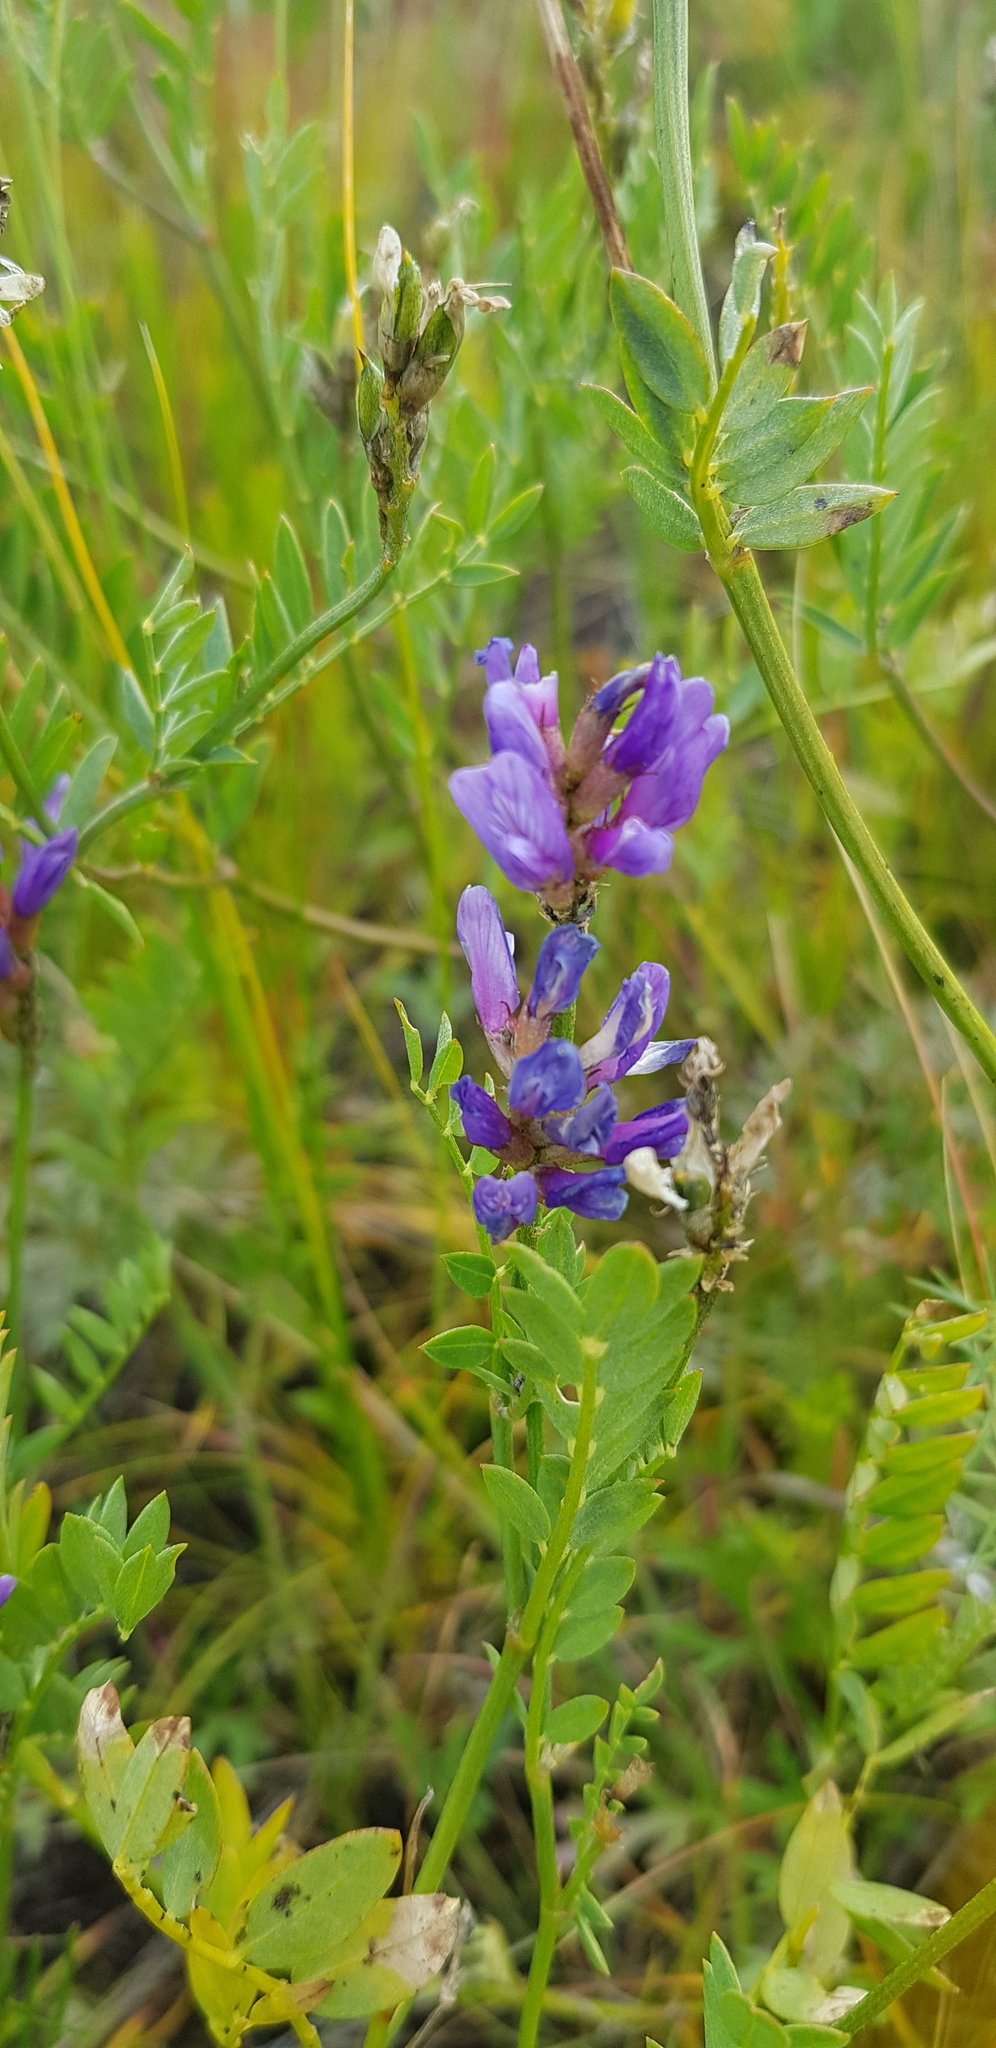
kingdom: Plantae
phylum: Tracheophyta
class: Magnoliopsida
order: Fabales
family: Fabaceae
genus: Astragalus
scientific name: Astragalus danicus
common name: Purple milk-vetch
